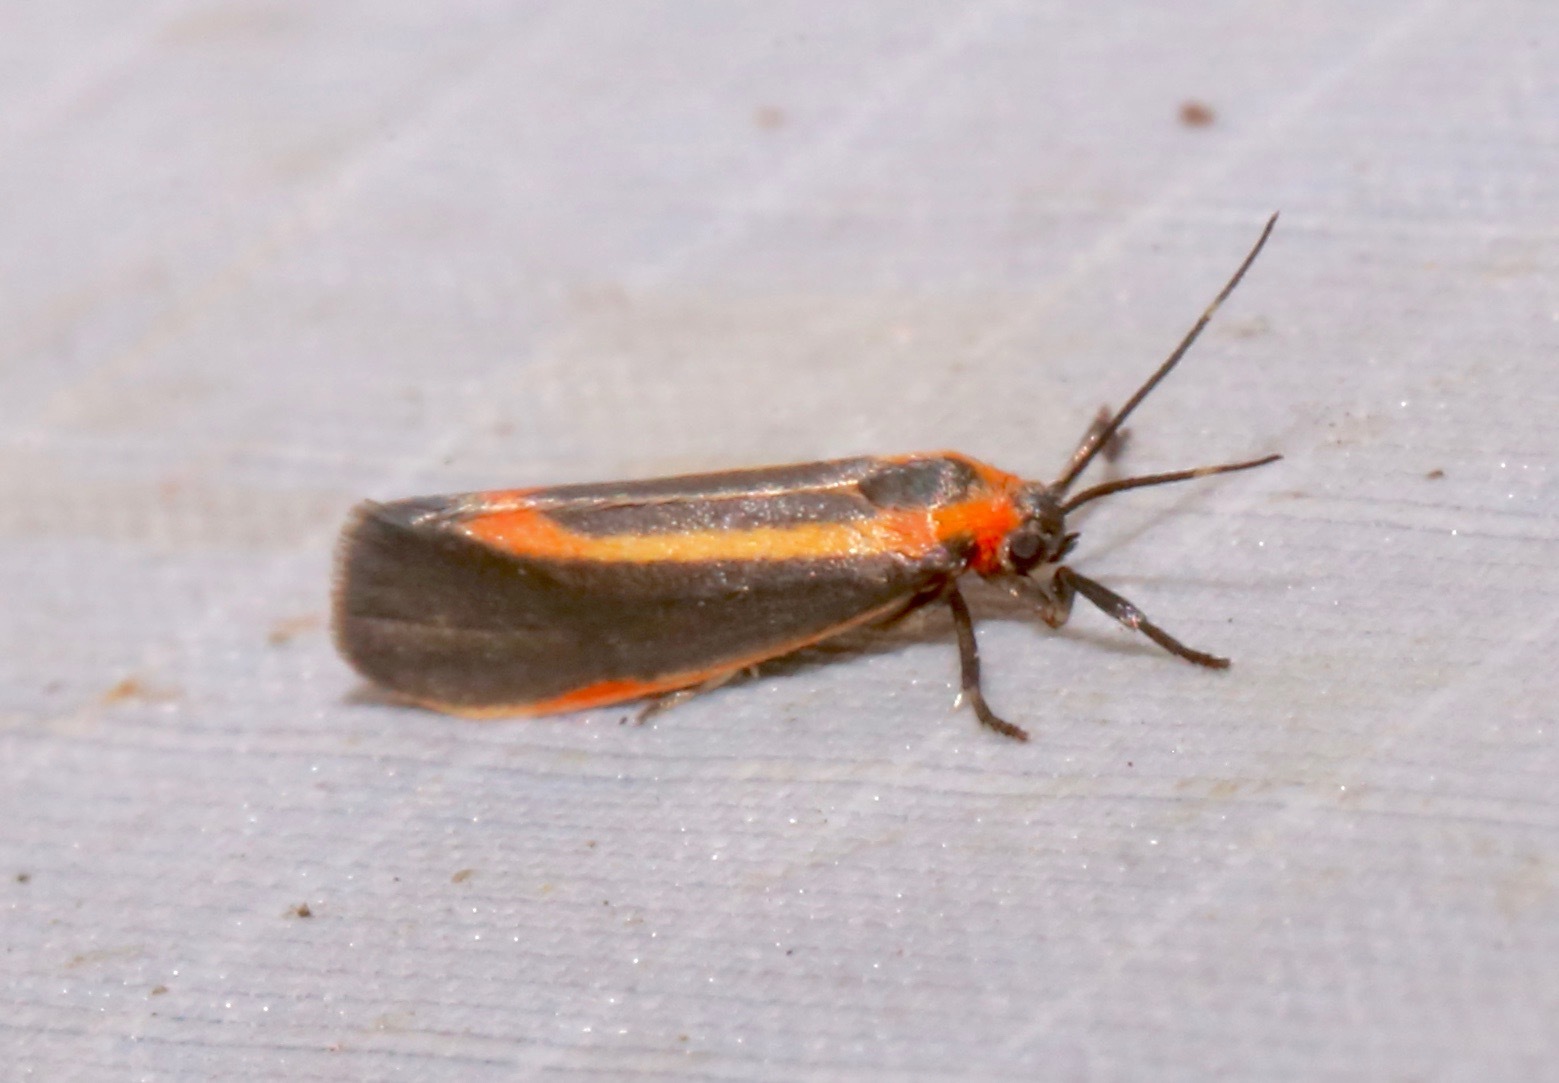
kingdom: Animalia
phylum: Arthropoda
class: Insecta
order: Lepidoptera
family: Erebidae
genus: Cisthene
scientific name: Cisthene subjecta
